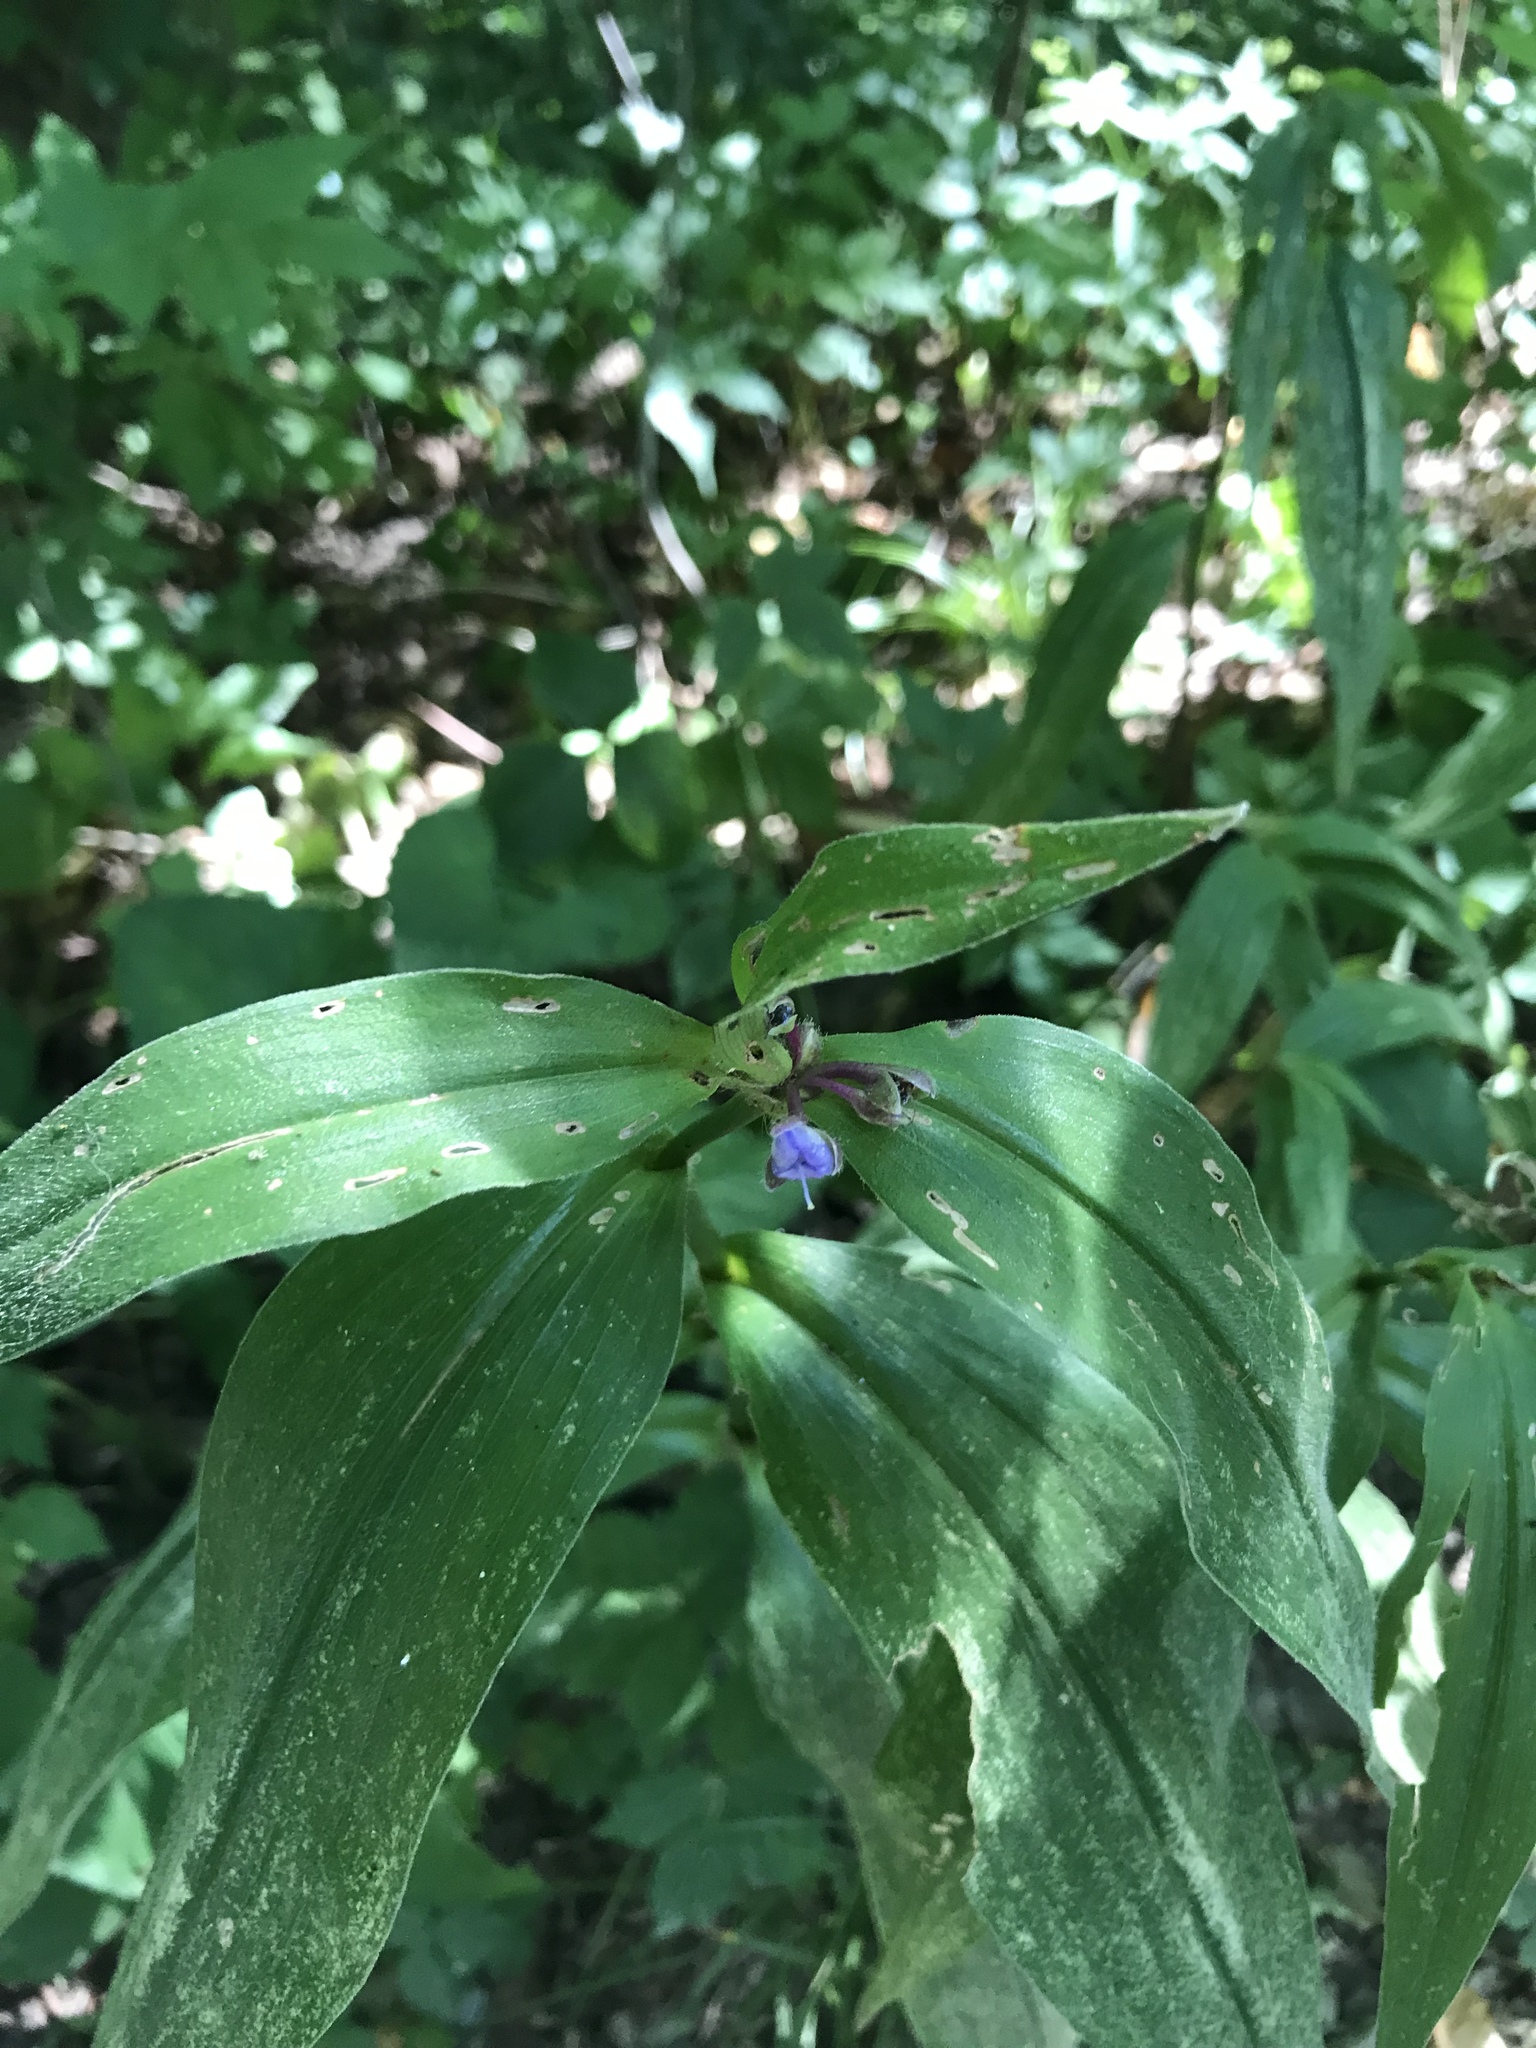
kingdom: Plantae
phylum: Tracheophyta
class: Liliopsida
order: Commelinales
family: Commelinaceae
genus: Tradescantia
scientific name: Tradescantia subaspera
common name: Wide-leaf spiderwort
